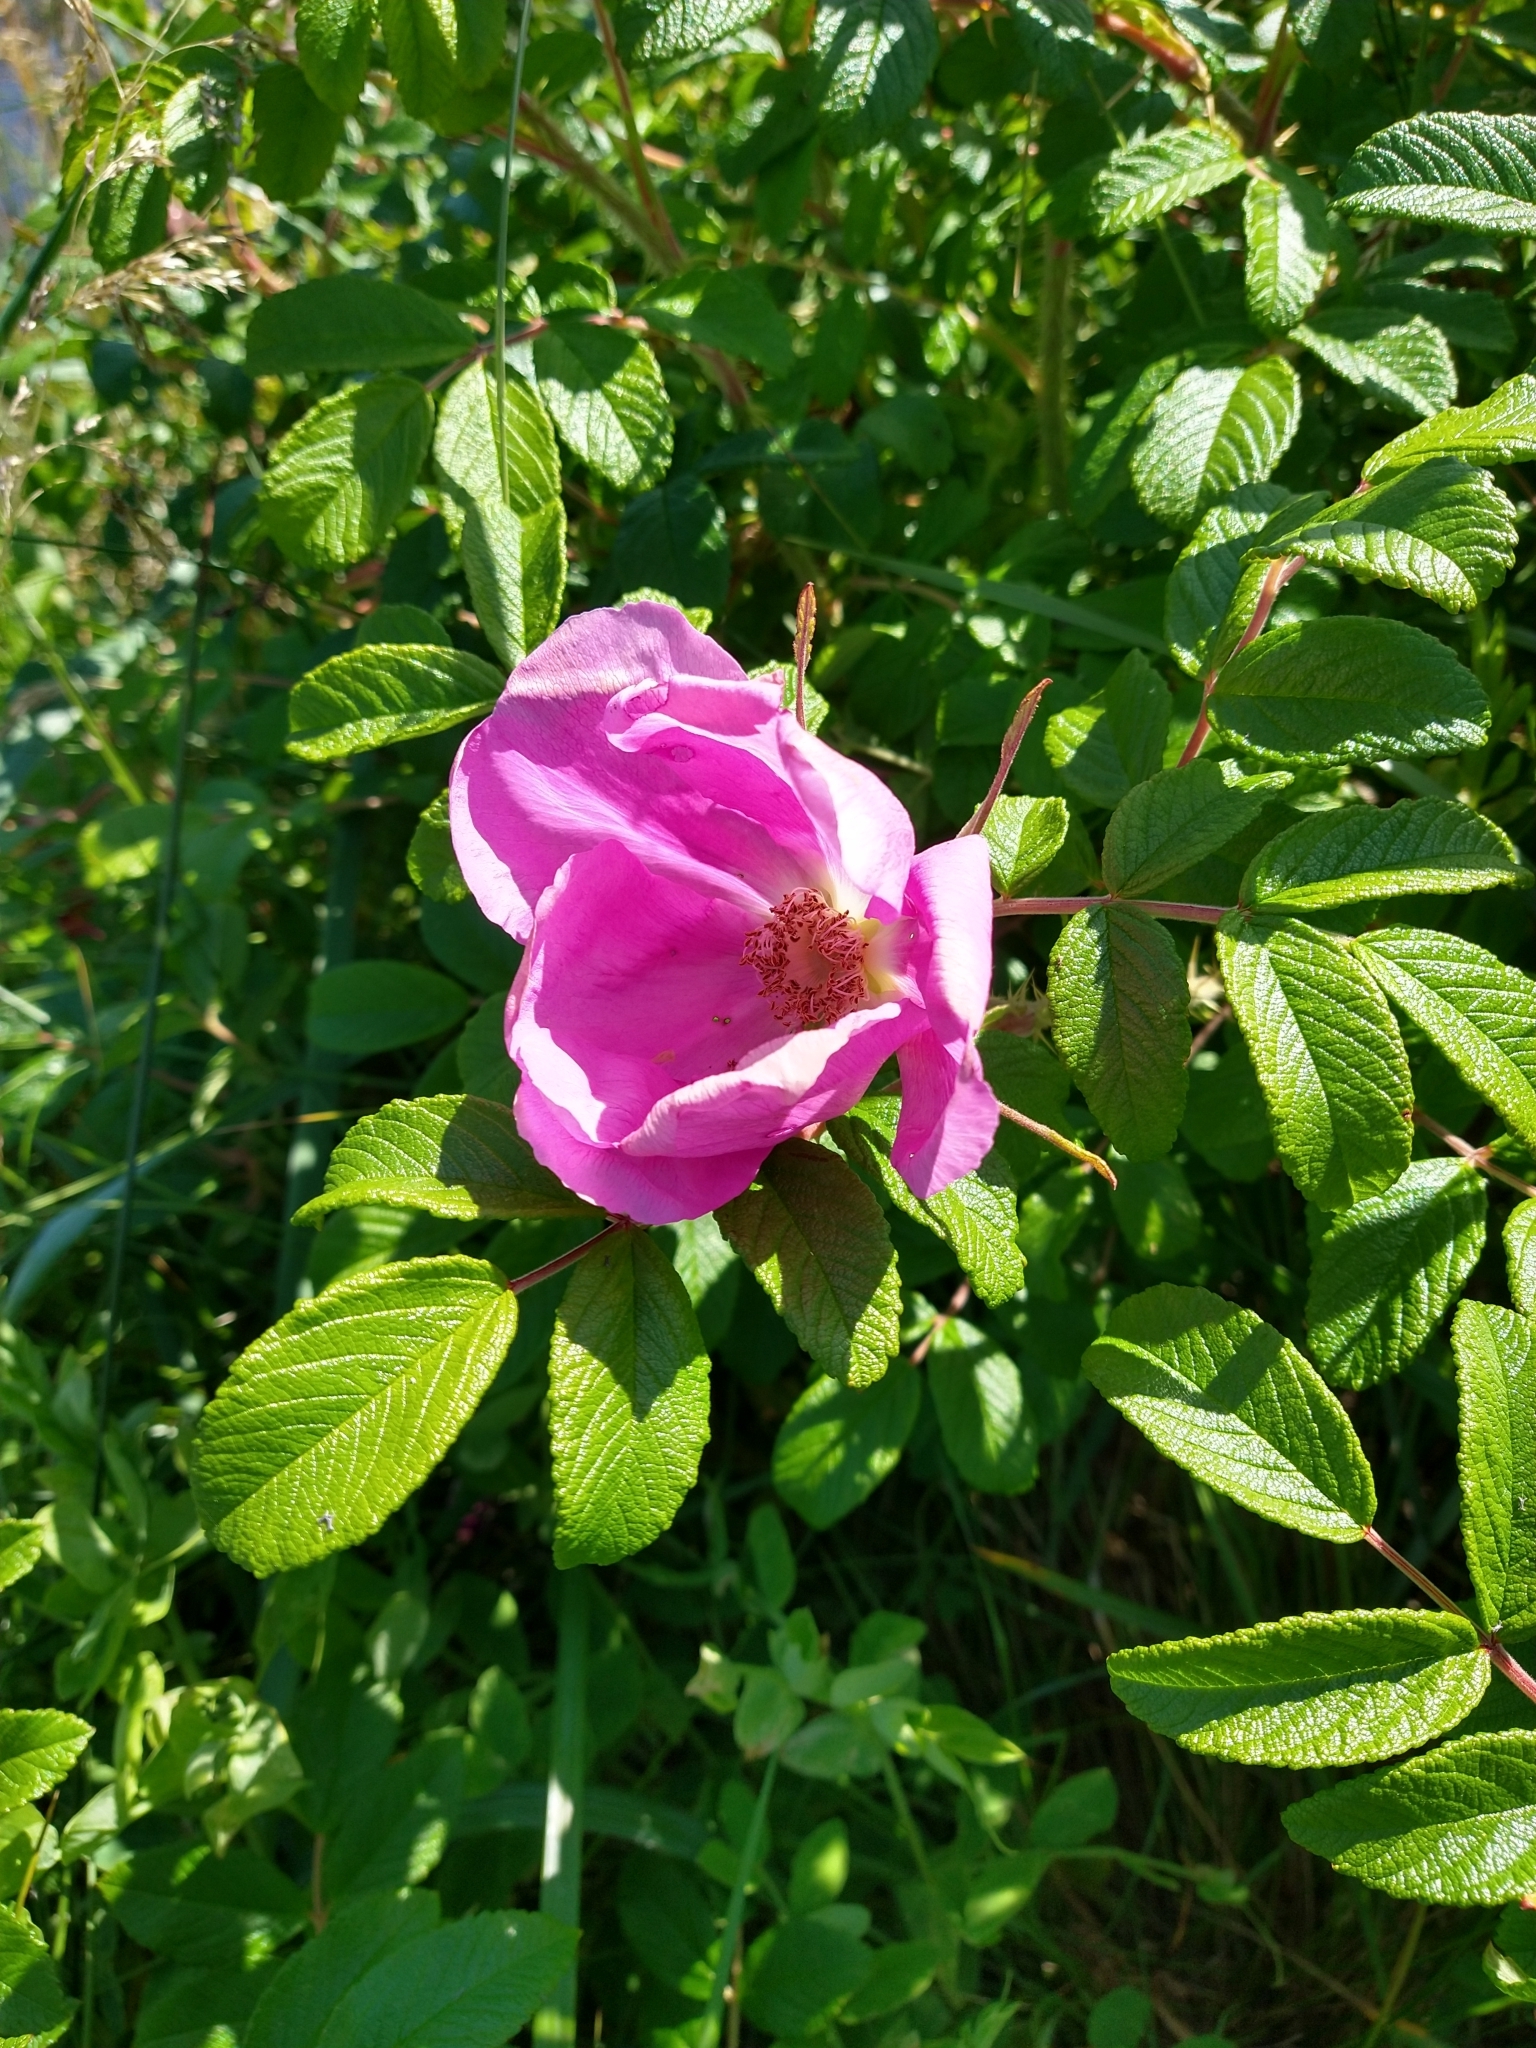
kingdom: Plantae
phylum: Tracheophyta
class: Magnoliopsida
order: Rosales
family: Rosaceae
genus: Rosa
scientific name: Rosa rugosa
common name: Japanese rose
